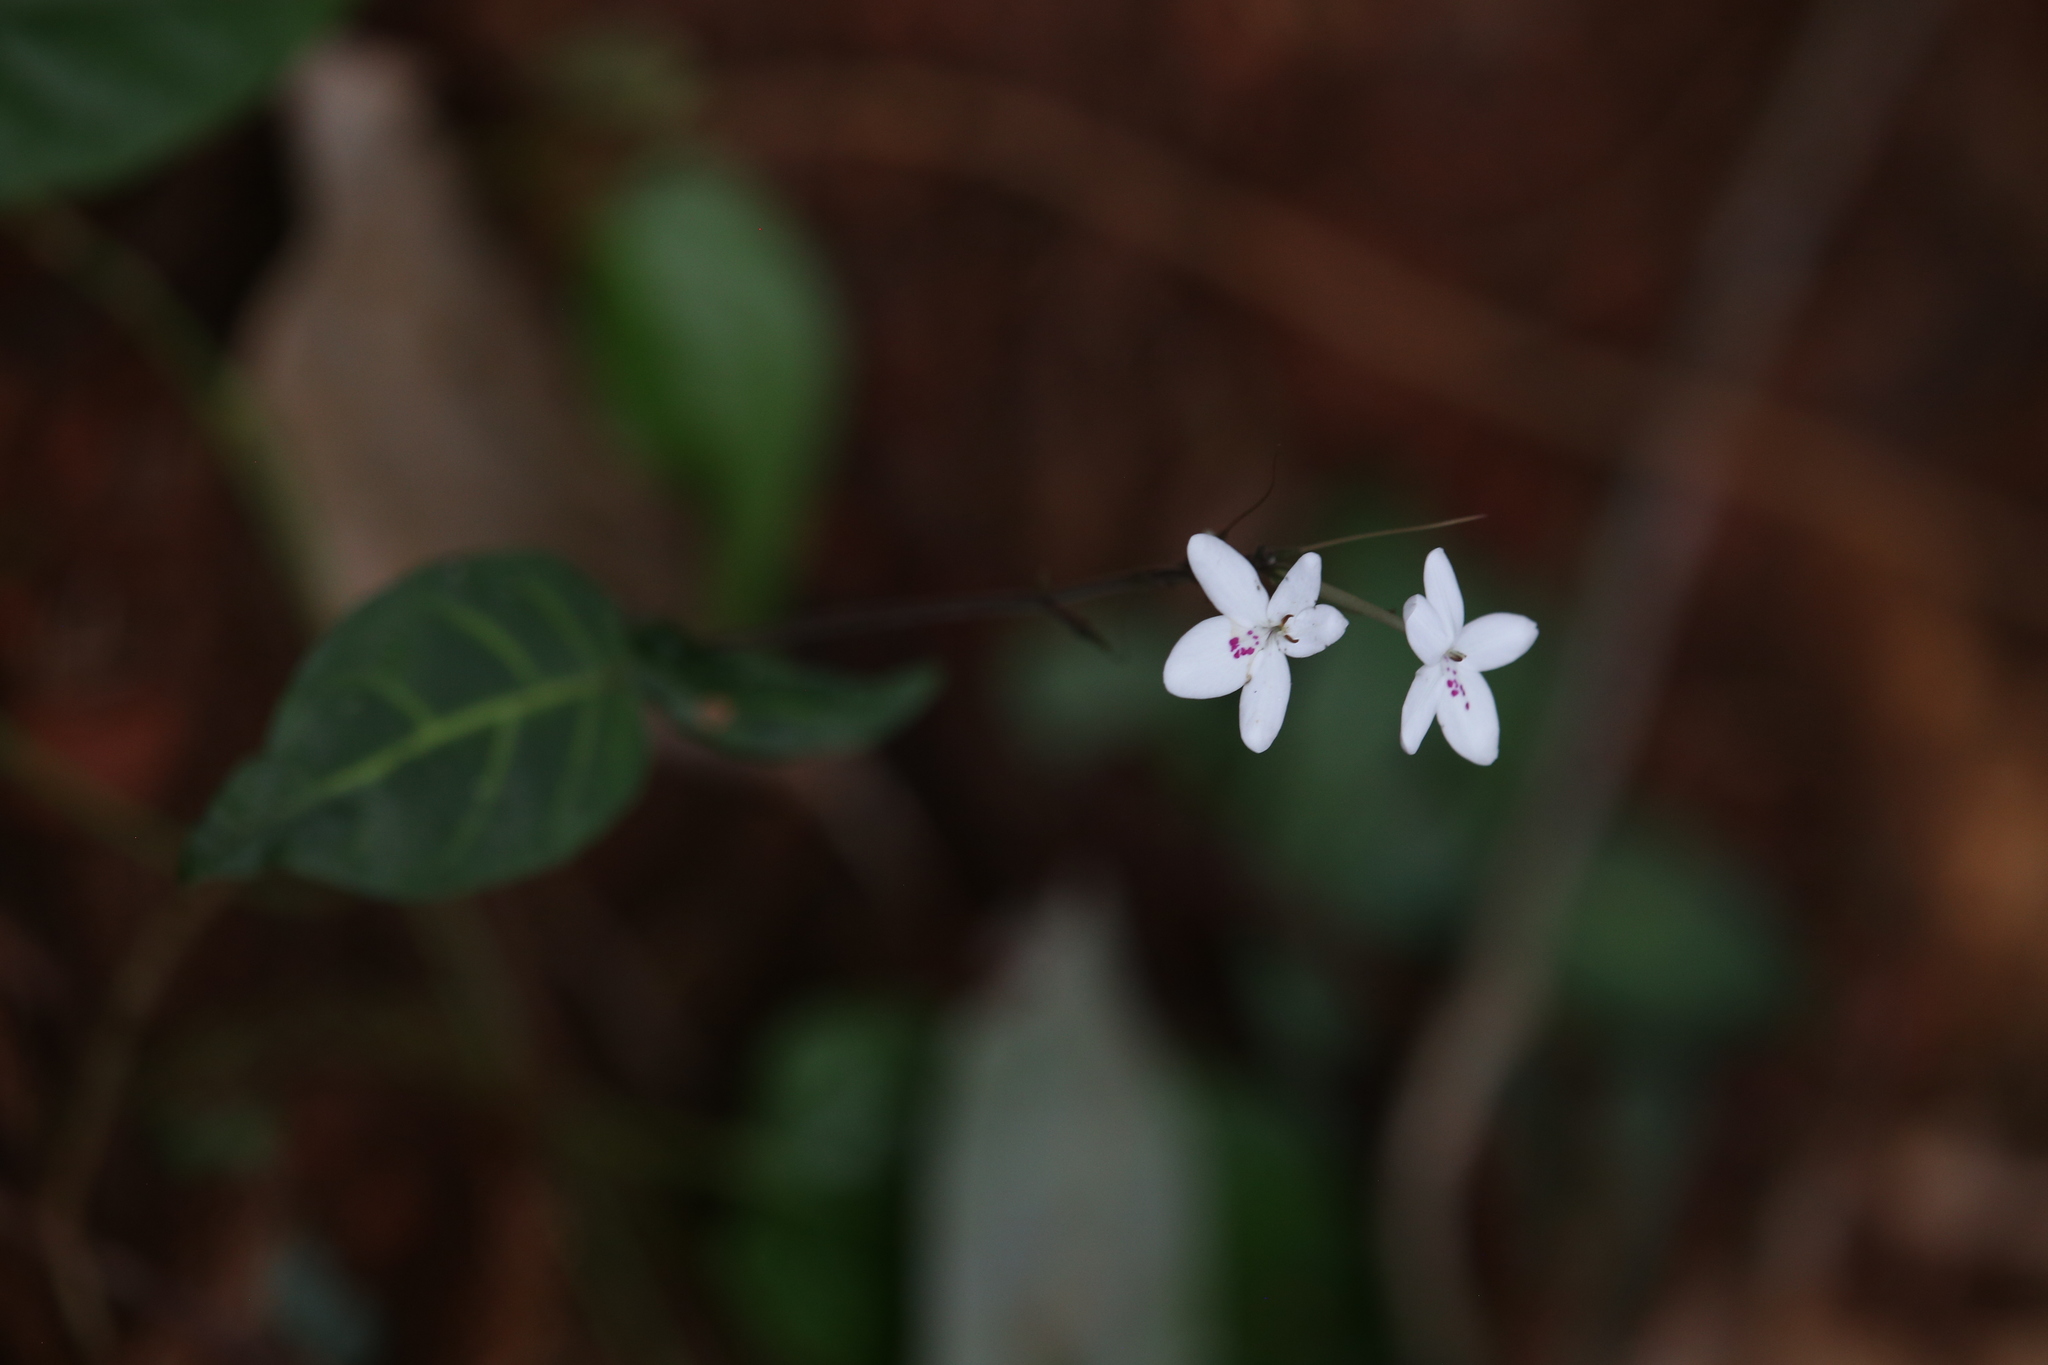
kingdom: Plantae
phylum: Tracheophyta
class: Magnoliopsida
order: Lamiales
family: Acanthaceae
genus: Pseuderanthemum
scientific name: Pseuderanthemum variabile
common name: Night and afternoon
